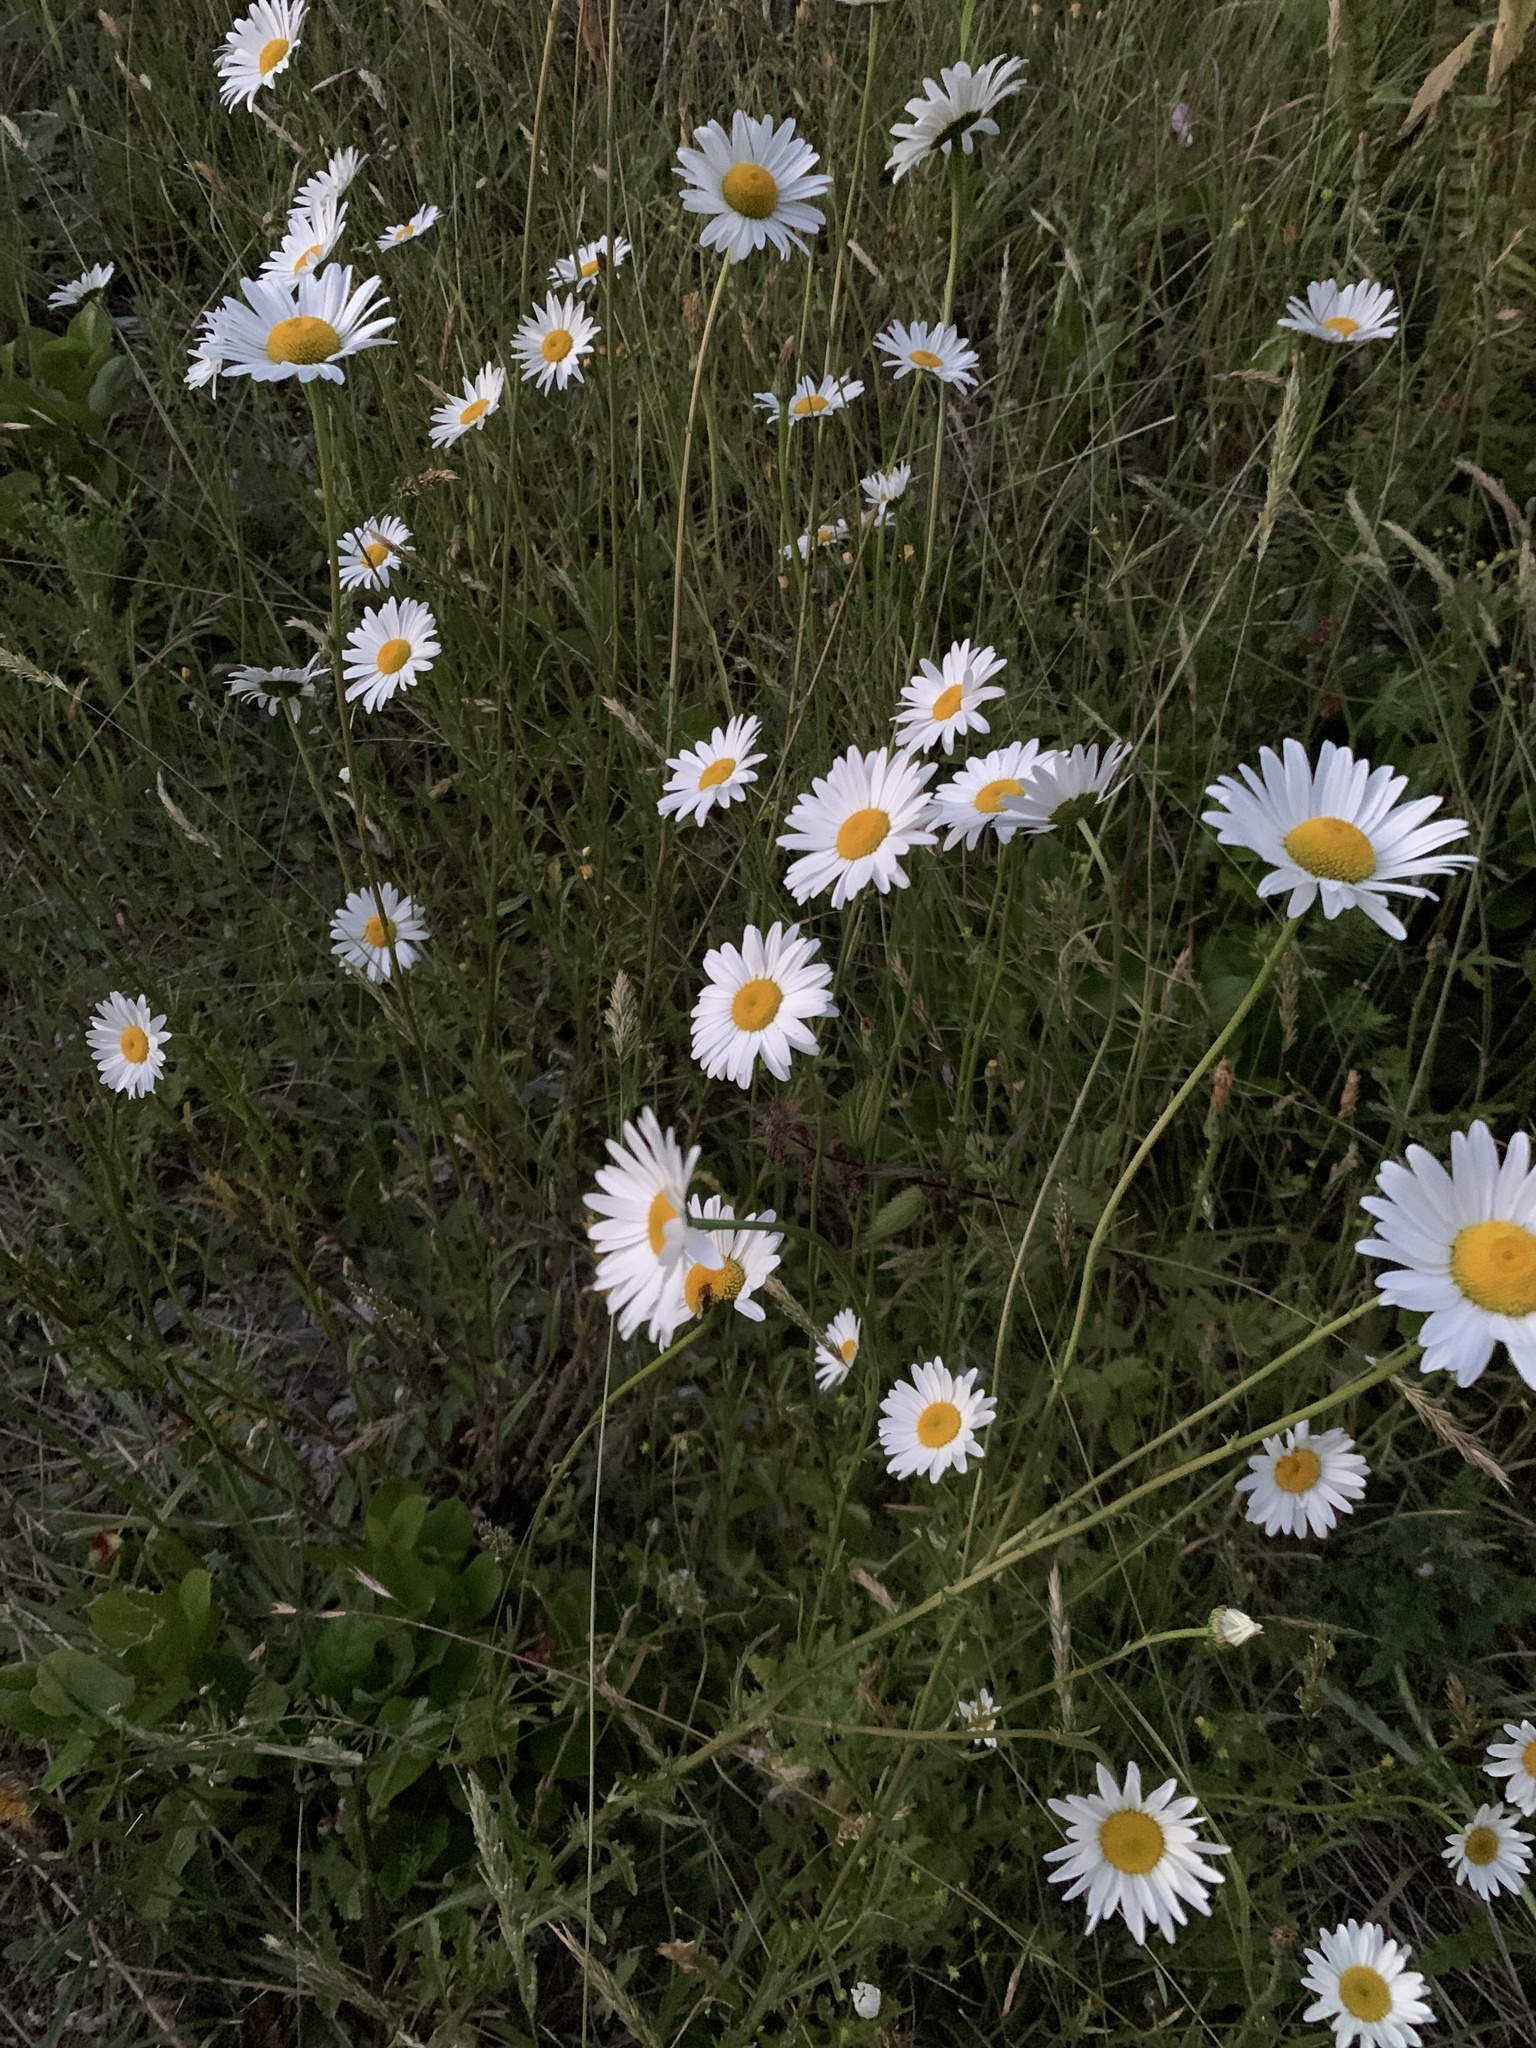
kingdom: Plantae
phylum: Tracheophyta
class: Magnoliopsida
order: Asterales
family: Asteraceae
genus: Leucanthemum
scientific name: Leucanthemum vulgare
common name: Oxeye daisy
